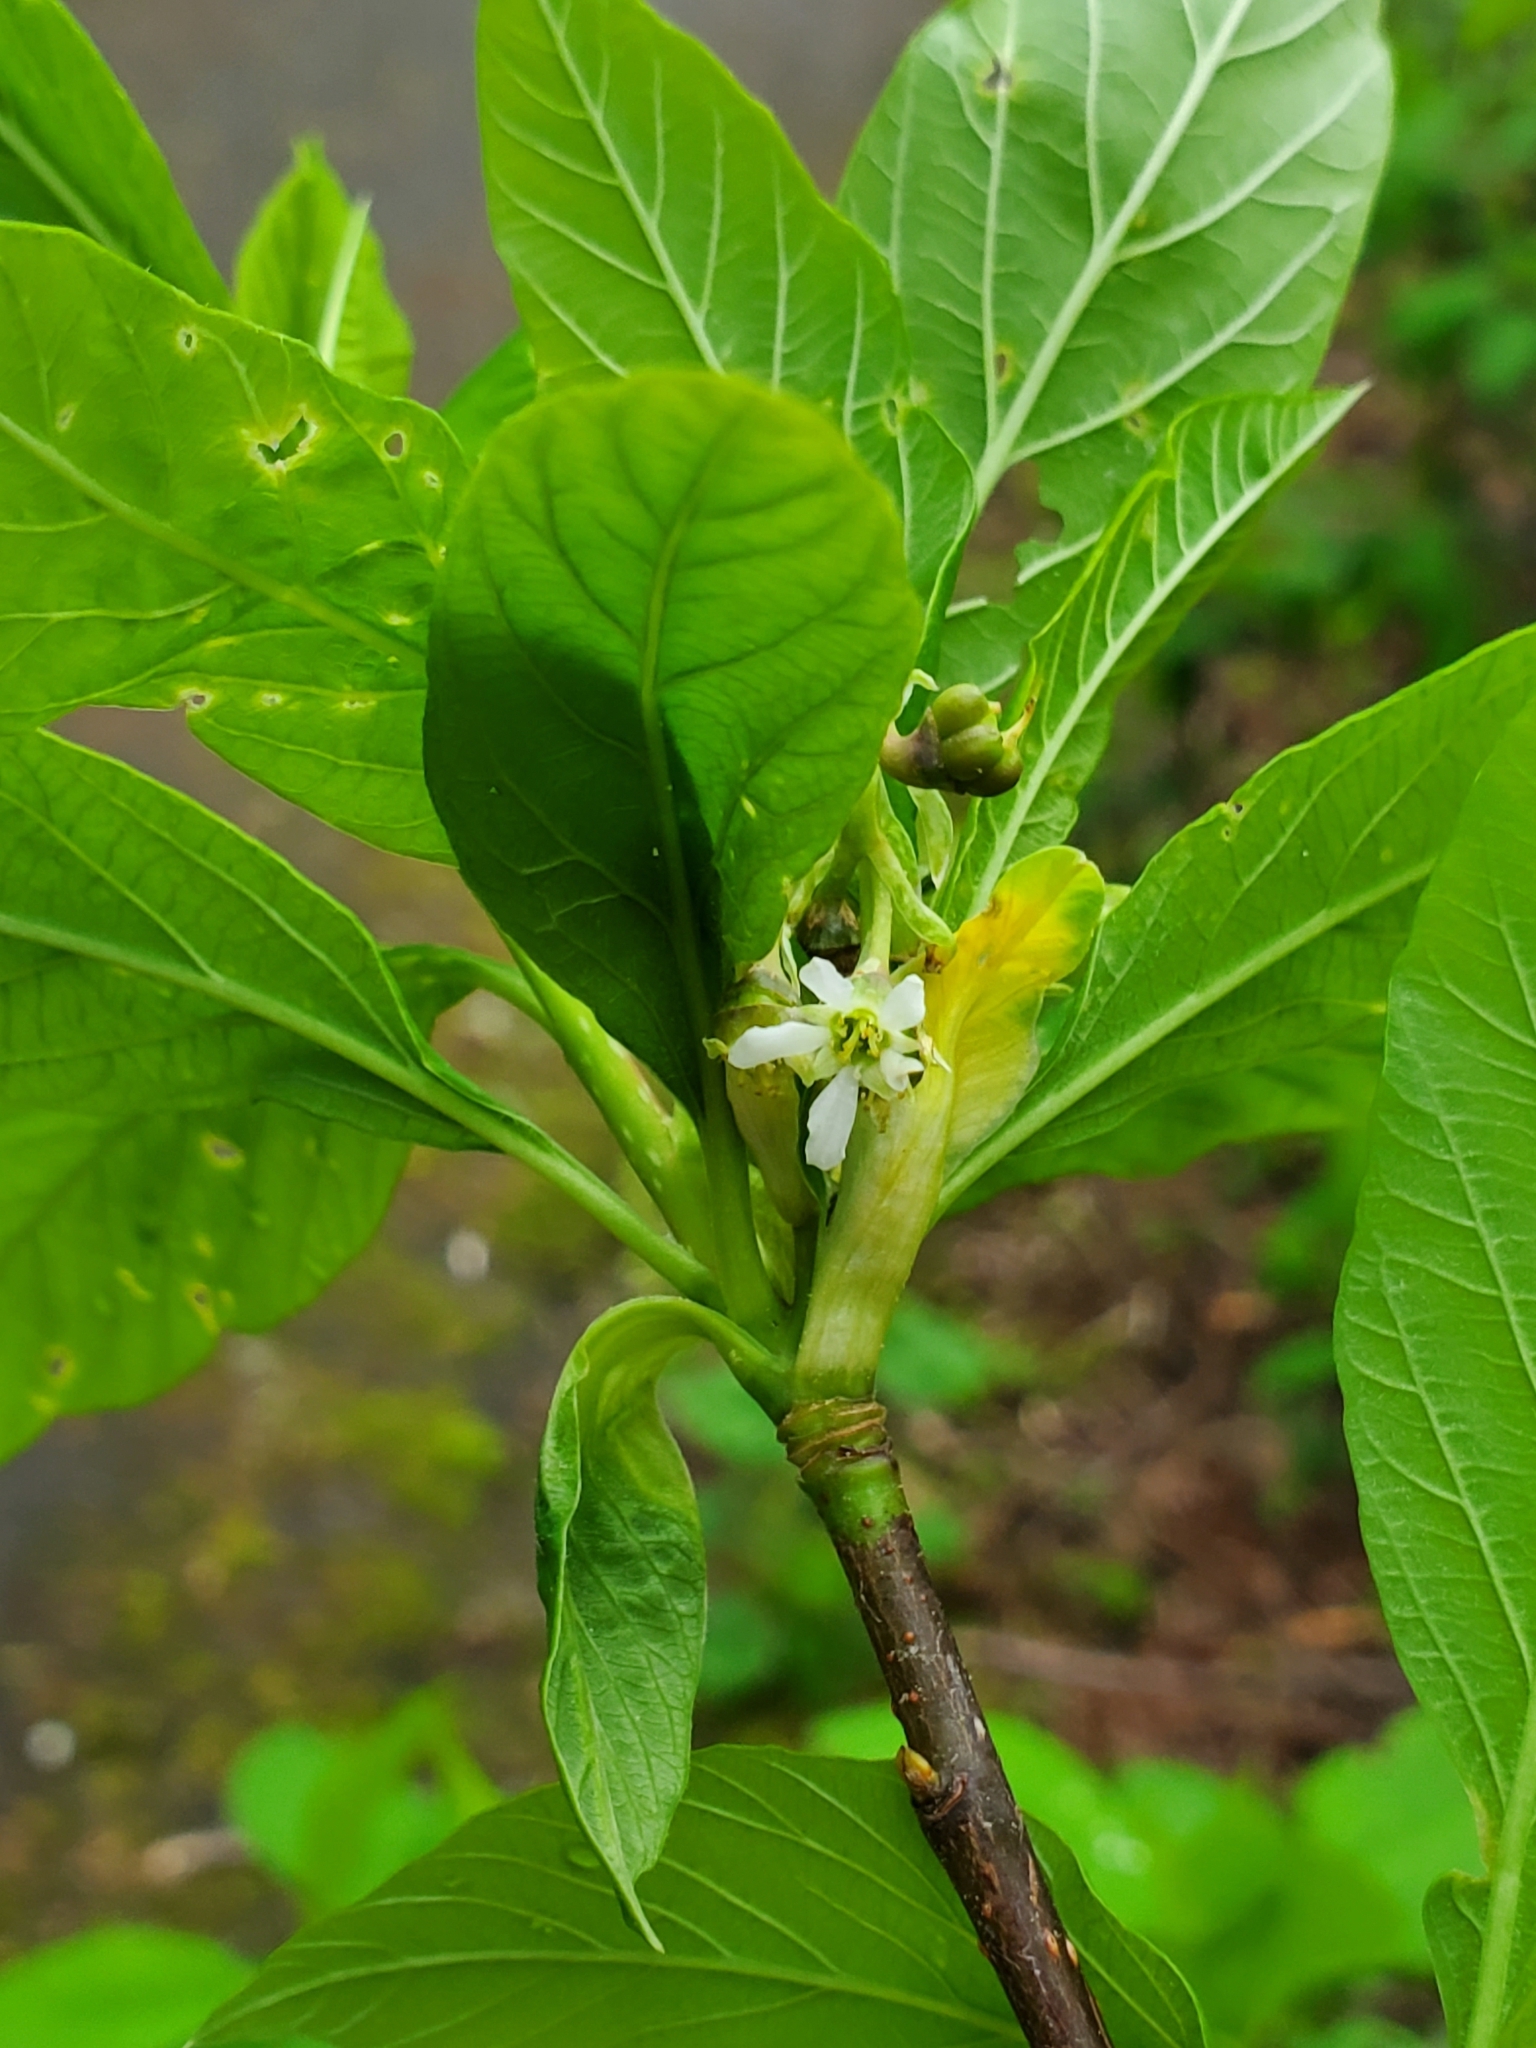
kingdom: Plantae
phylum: Tracheophyta
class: Magnoliopsida
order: Rosales
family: Rosaceae
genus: Oemleria
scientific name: Oemleria cerasiformis
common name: Osoberry
